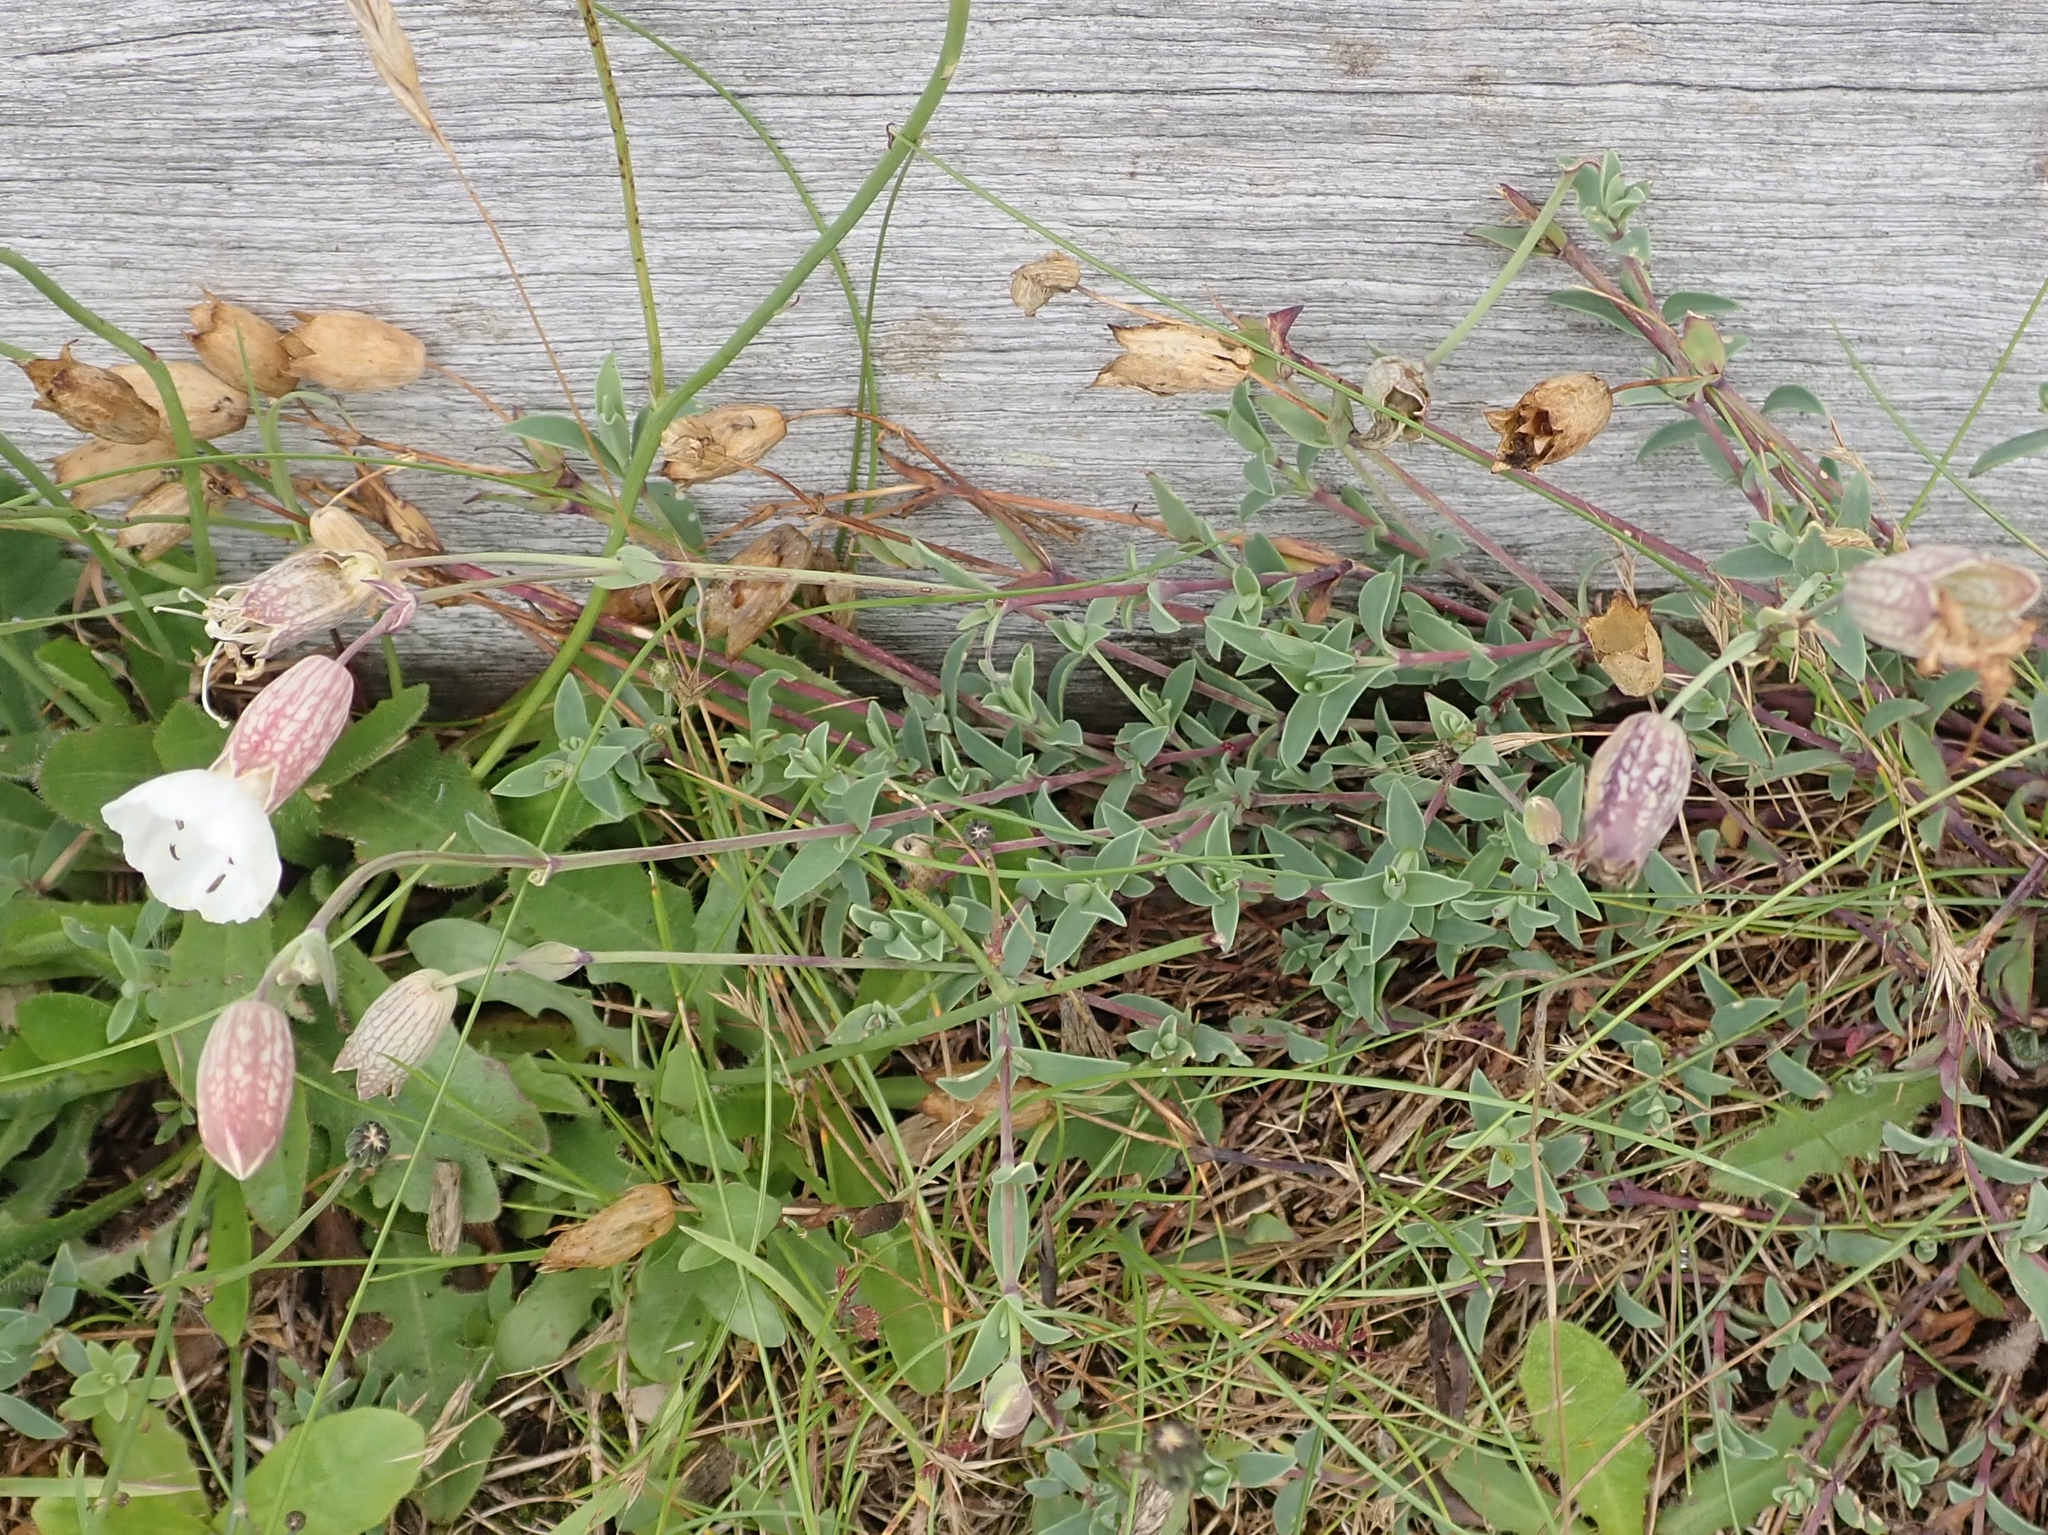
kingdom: Plantae
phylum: Tracheophyta
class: Magnoliopsida
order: Caryophyllales
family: Caryophyllaceae
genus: Silene
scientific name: Silene uniflora
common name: Sea campion
